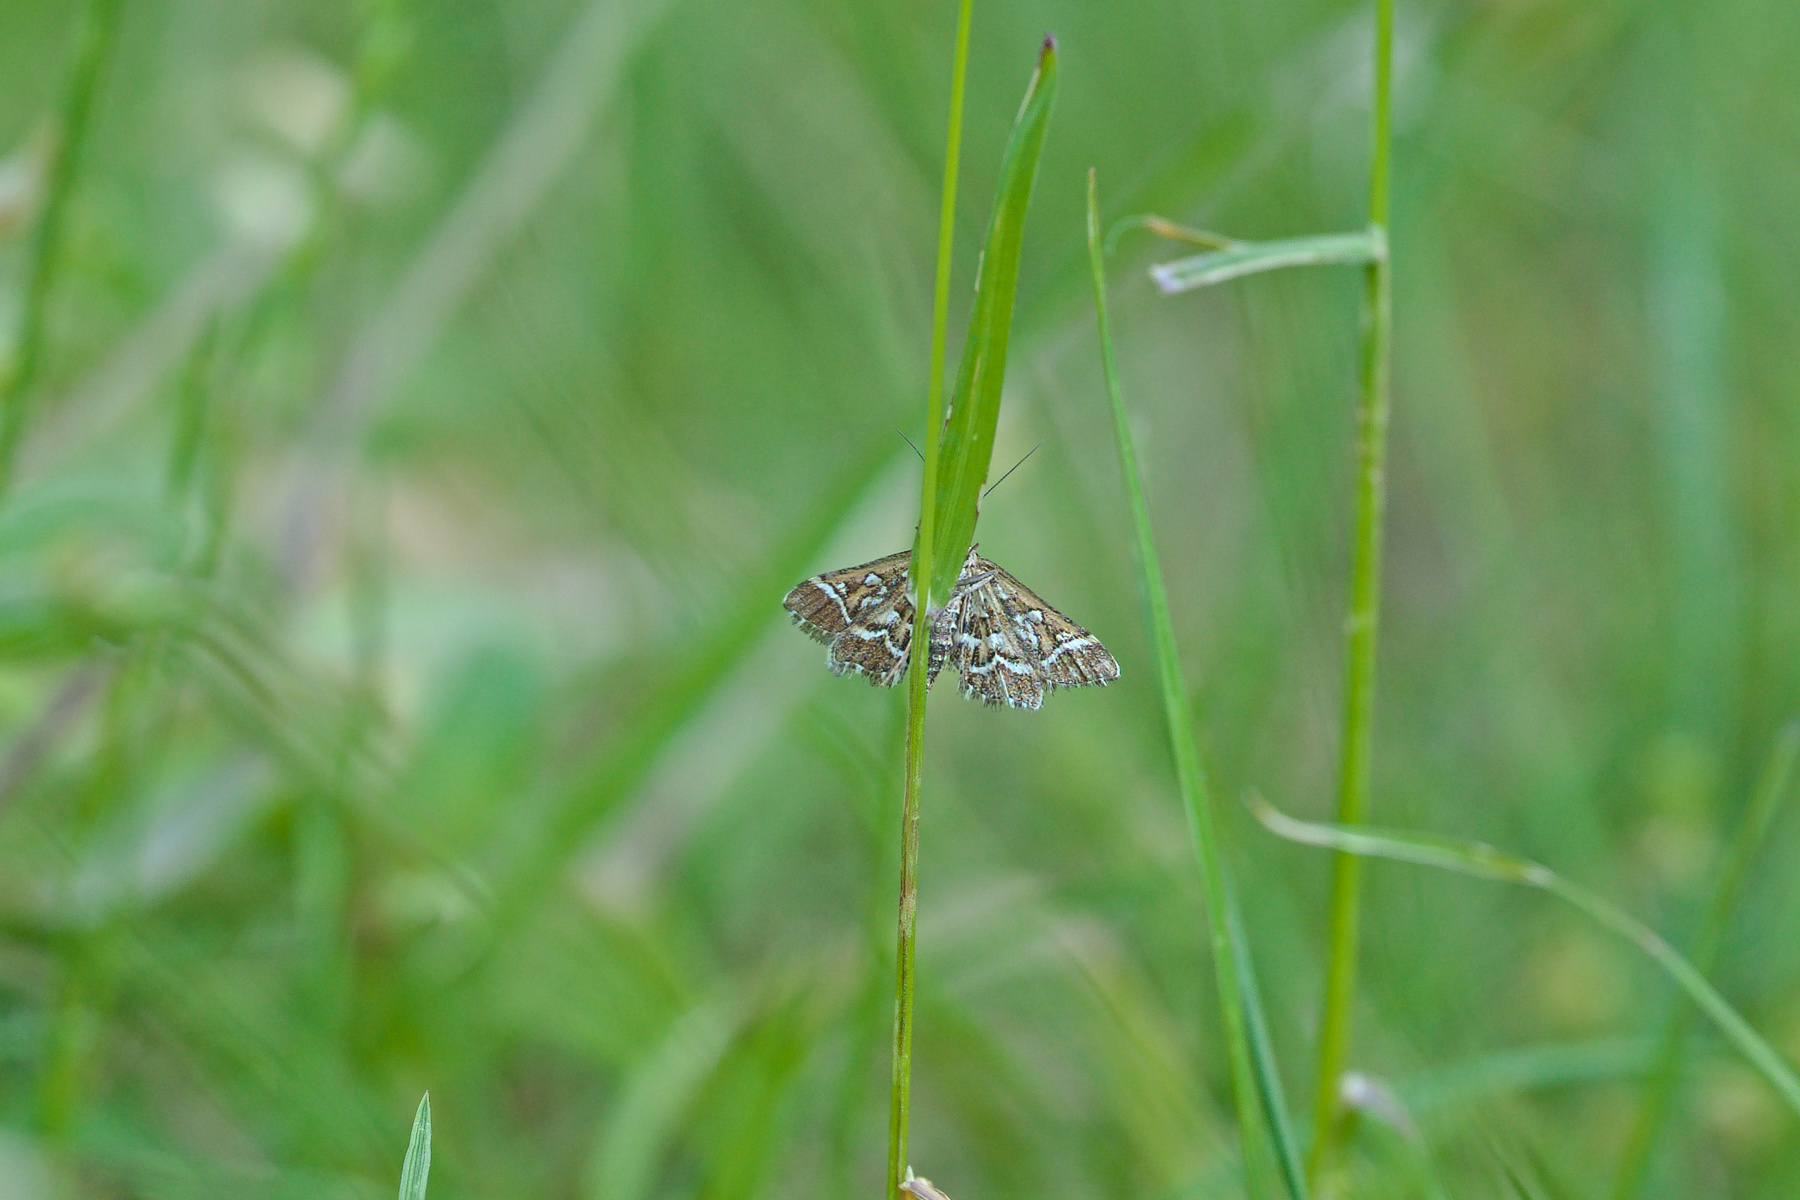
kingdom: Animalia
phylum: Arthropoda
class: Insecta
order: Lepidoptera
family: Crambidae
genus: Diasemia
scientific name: Diasemia reticularis
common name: Lettered china-mark
